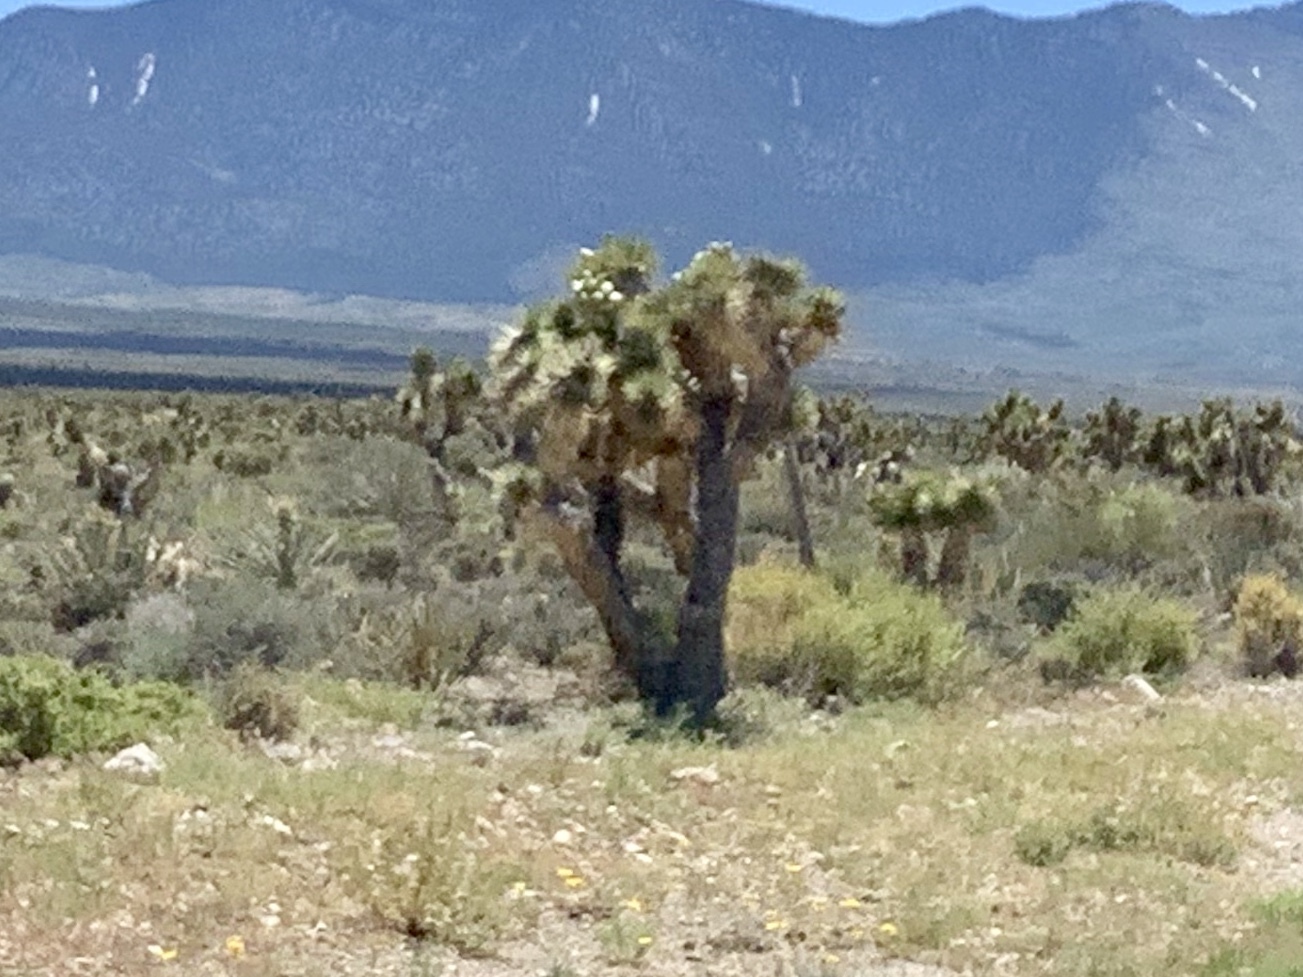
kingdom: Plantae
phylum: Tracheophyta
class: Liliopsida
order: Asparagales
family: Asparagaceae
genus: Yucca
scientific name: Yucca brevifolia
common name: Joshua tree
